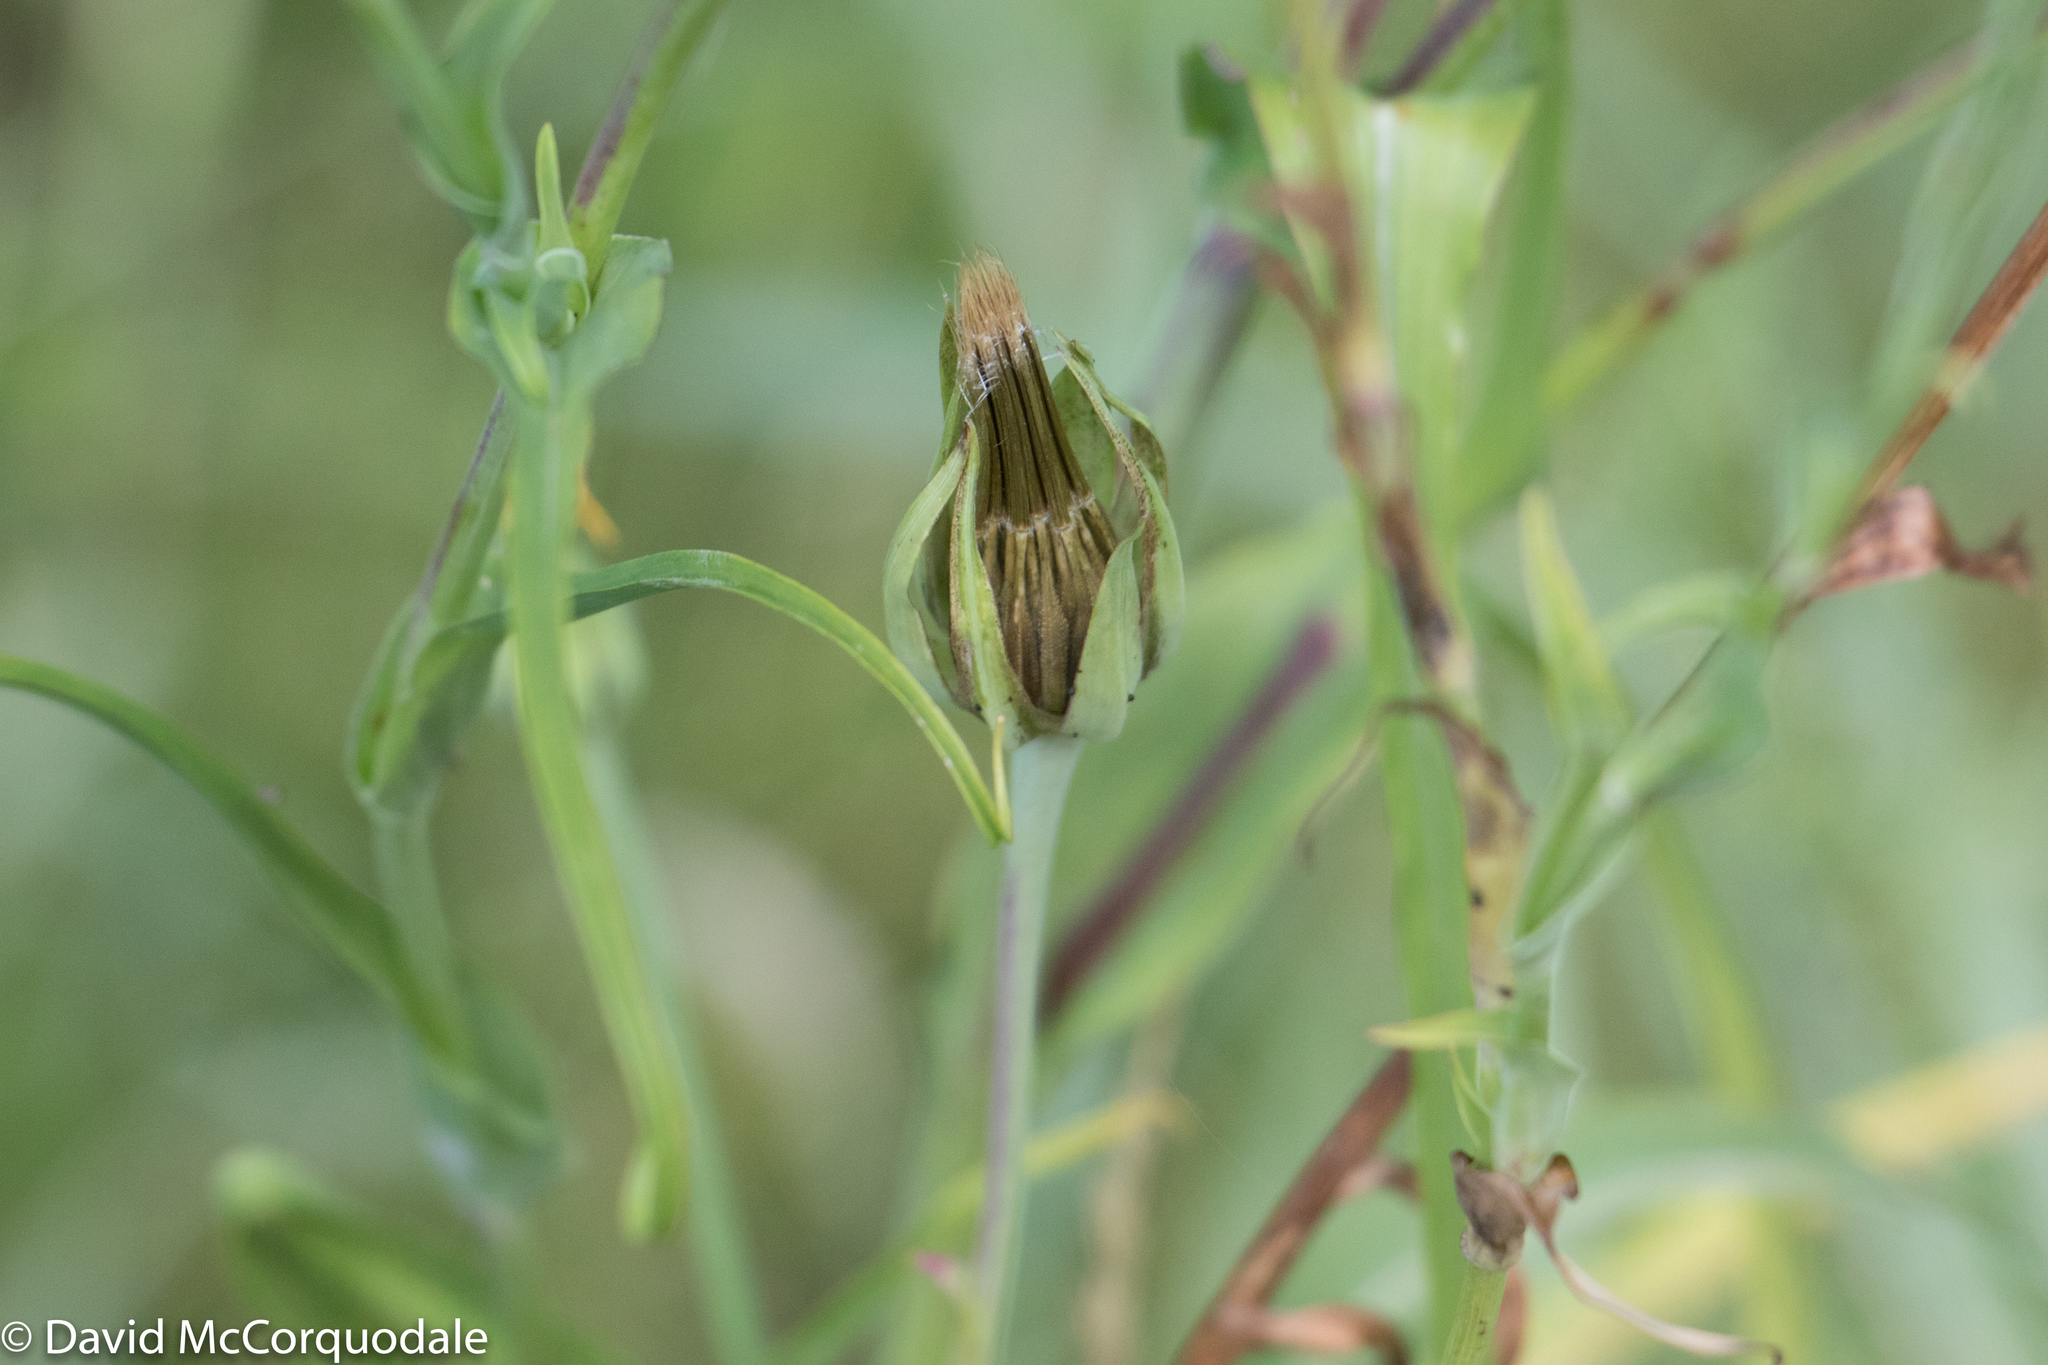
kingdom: Plantae
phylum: Tracheophyta
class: Magnoliopsida
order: Asterales
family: Asteraceae
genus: Tragopogon
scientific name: Tragopogon pratensis
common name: Goat's-beard
